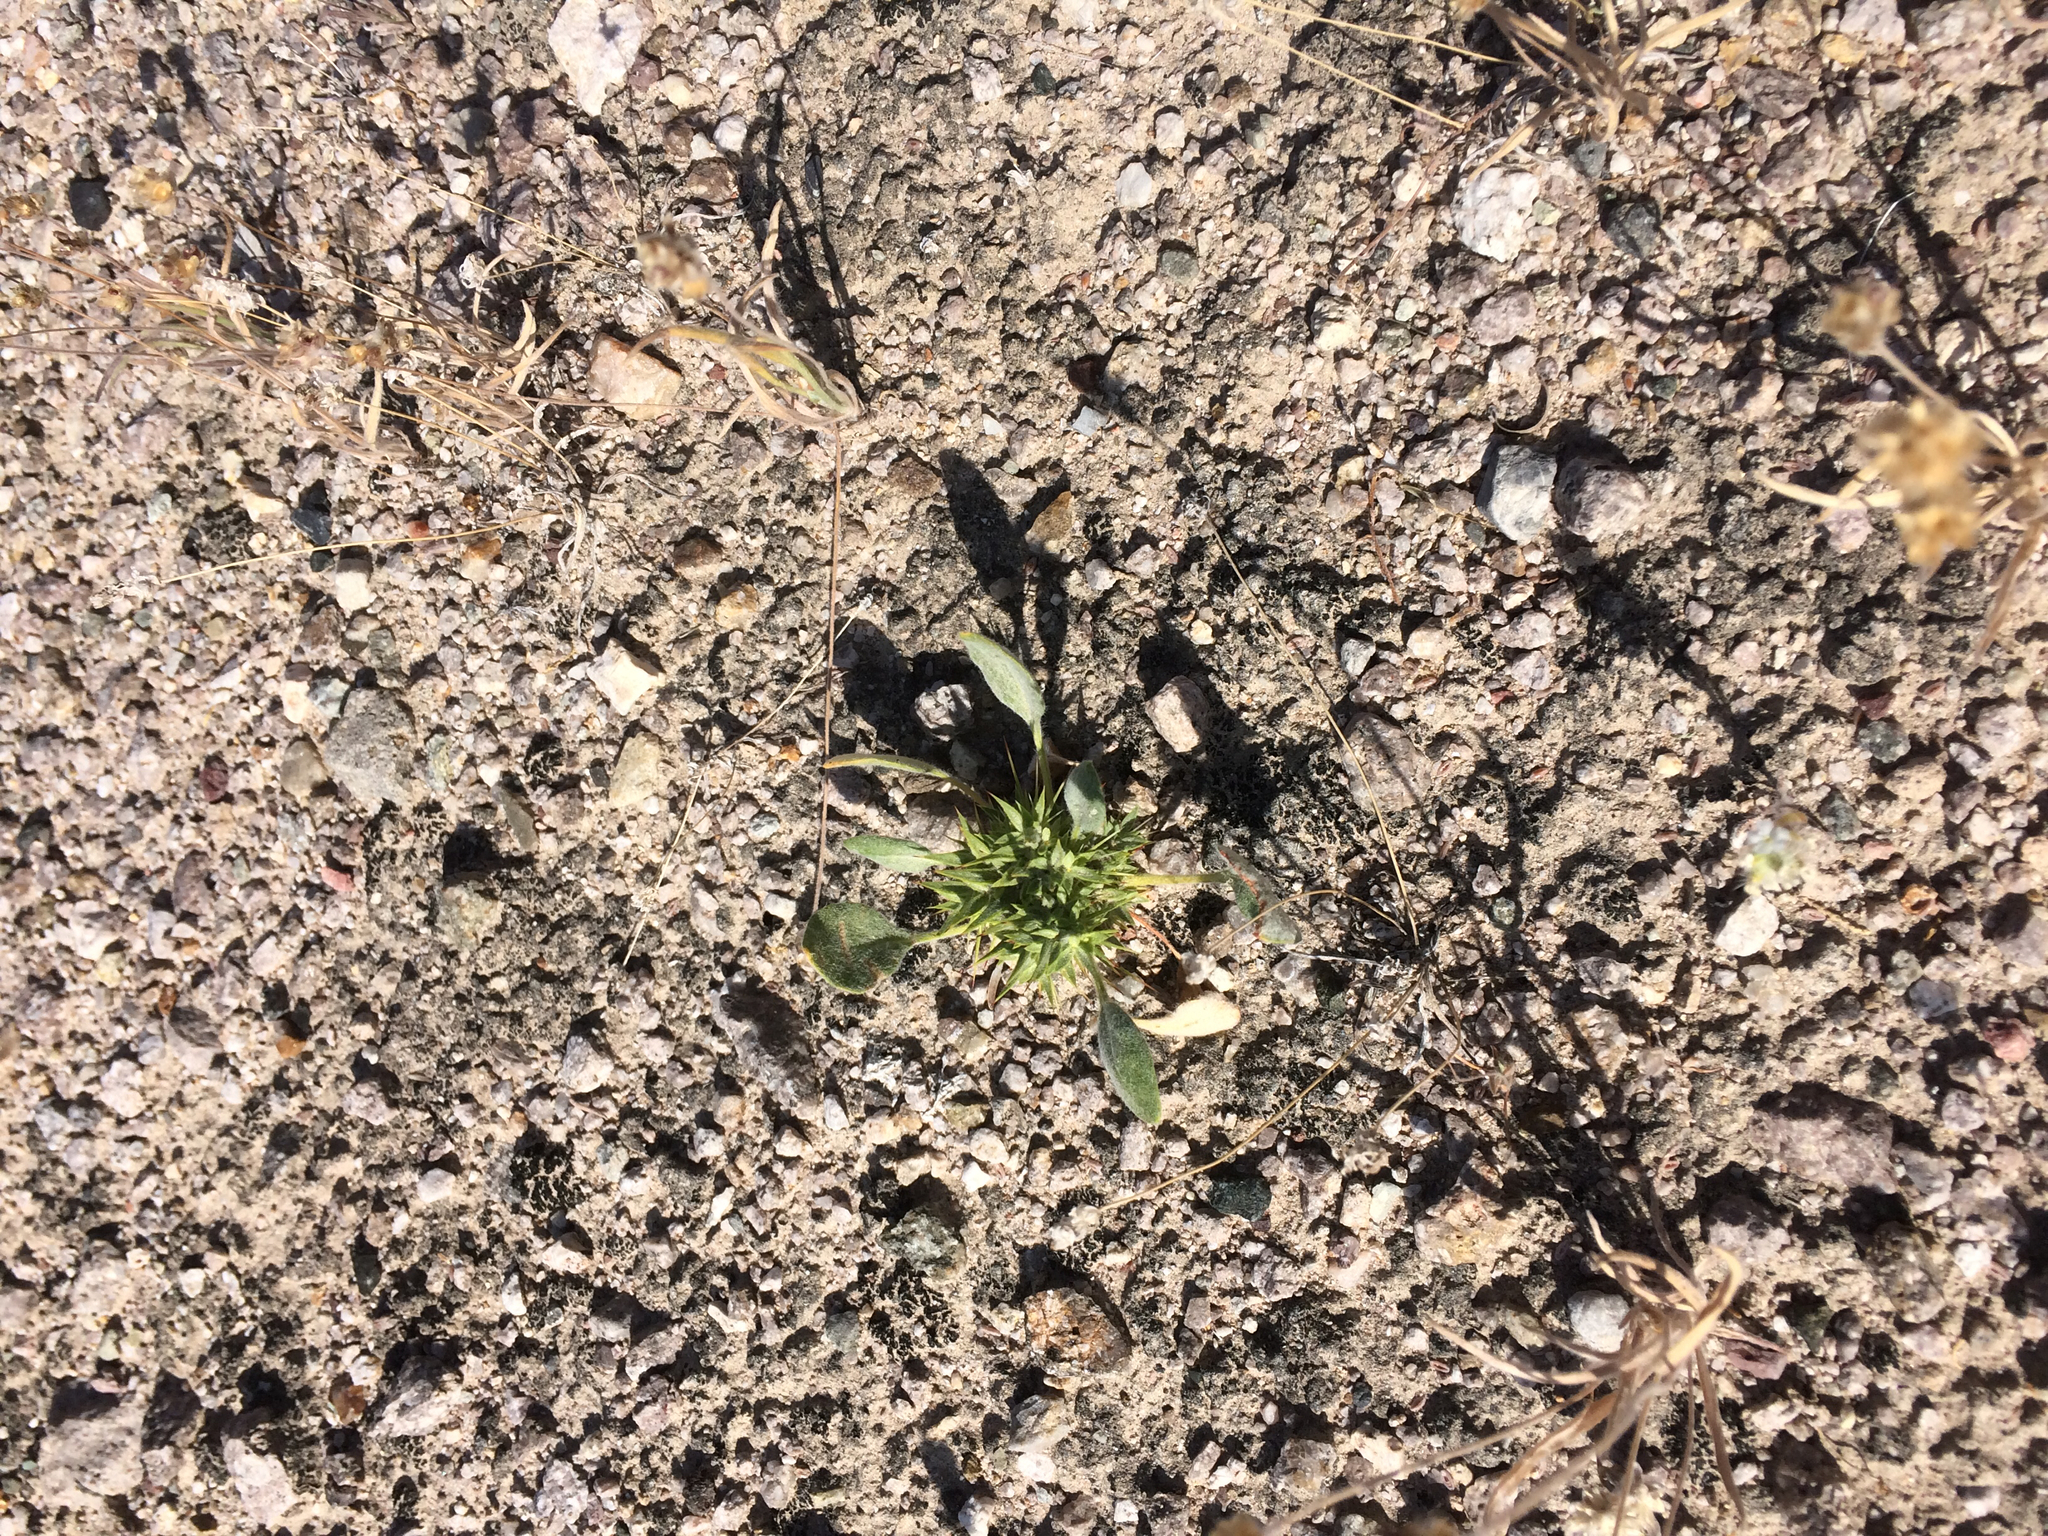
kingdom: Plantae
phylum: Tracheophyta
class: Magnoliopsida
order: Caryophyllales
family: Polygonaceae
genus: Chorizanthe
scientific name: Chorizanthe rigida
